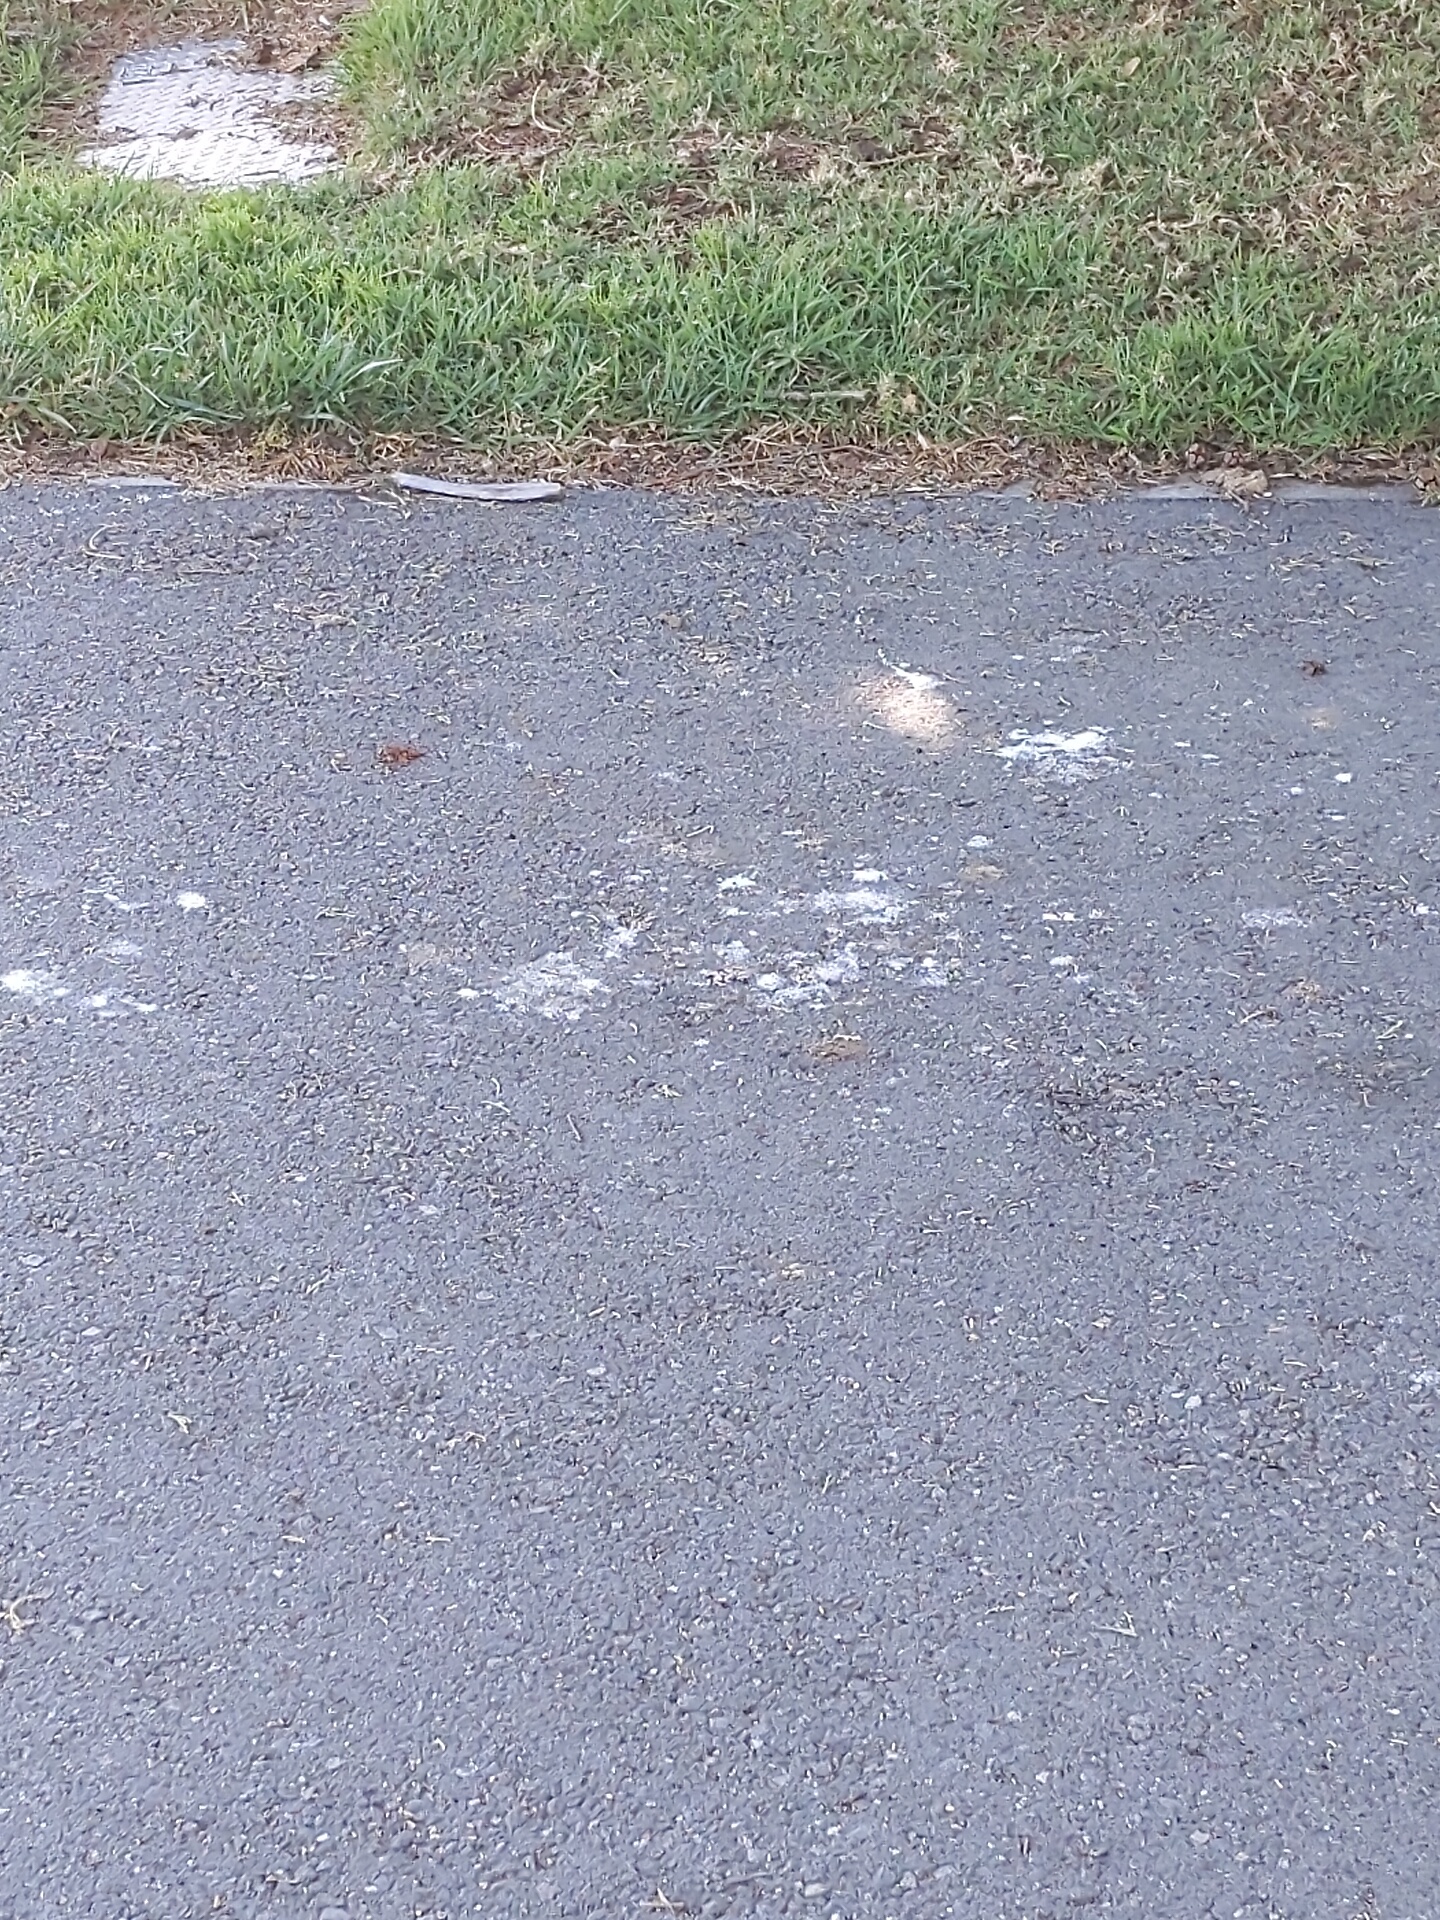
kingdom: Animalia
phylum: Chordata
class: Aves
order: Pelecaniformes
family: Ardeidae
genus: Nycticorax
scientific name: Nycticorax nycticorax
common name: Black-crowned night heron
